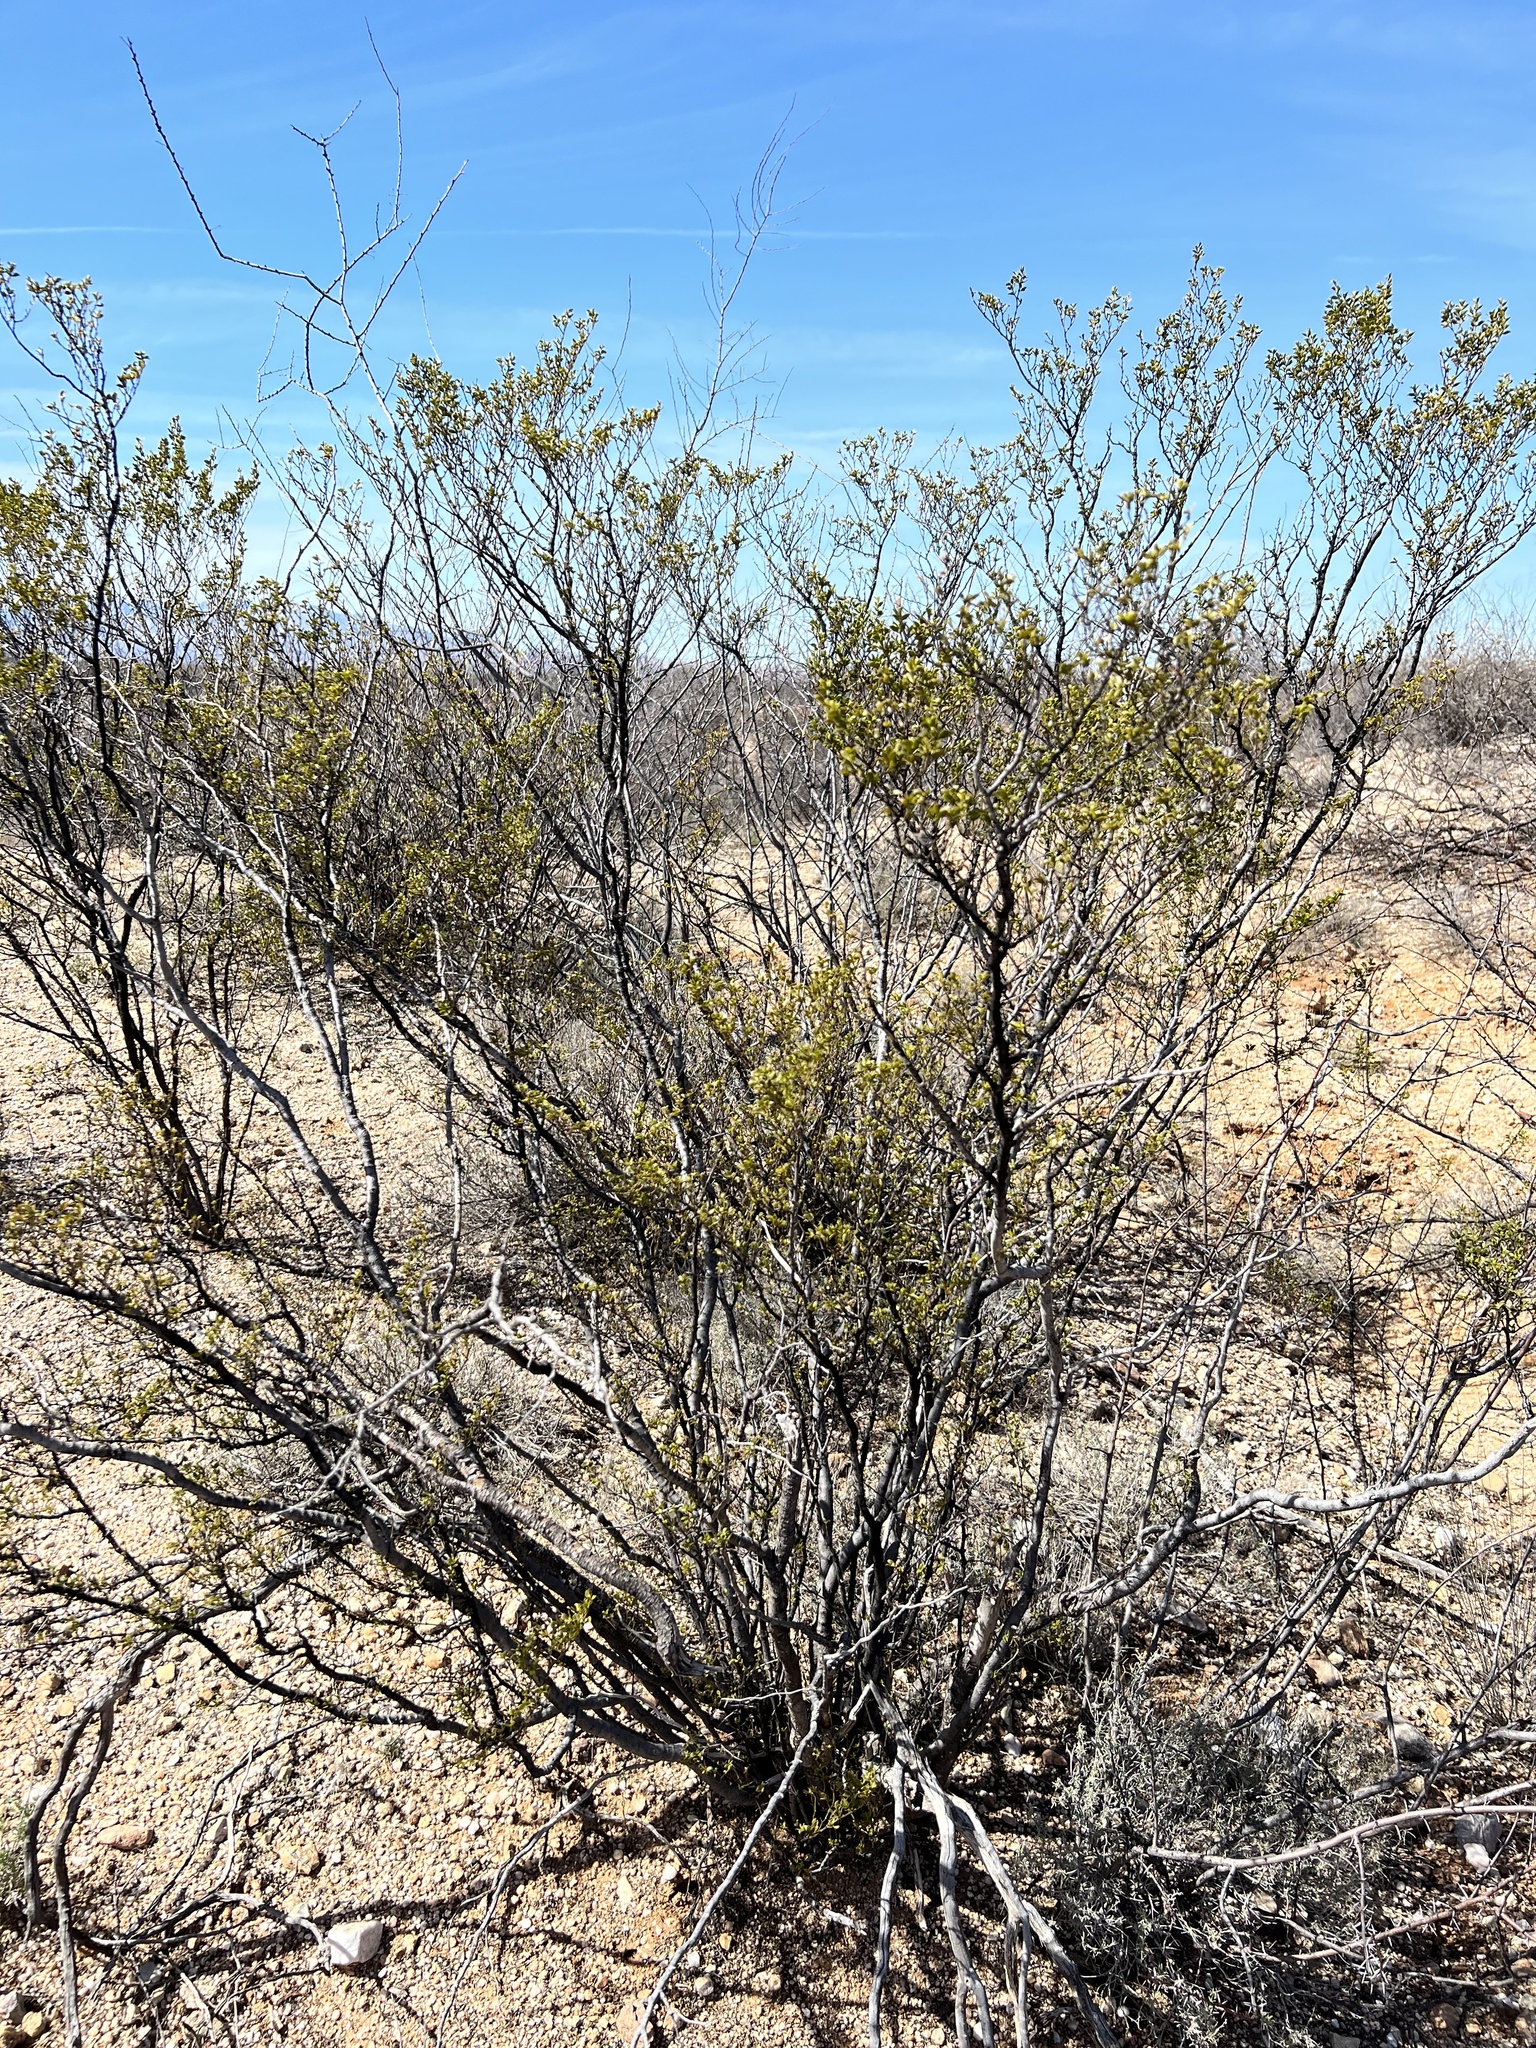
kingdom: Plantae
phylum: Tracheophyta
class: Magnoliopsida
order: Zygophyllales
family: Zygophyllaceae
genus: Larrea
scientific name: Larrea tridentata
